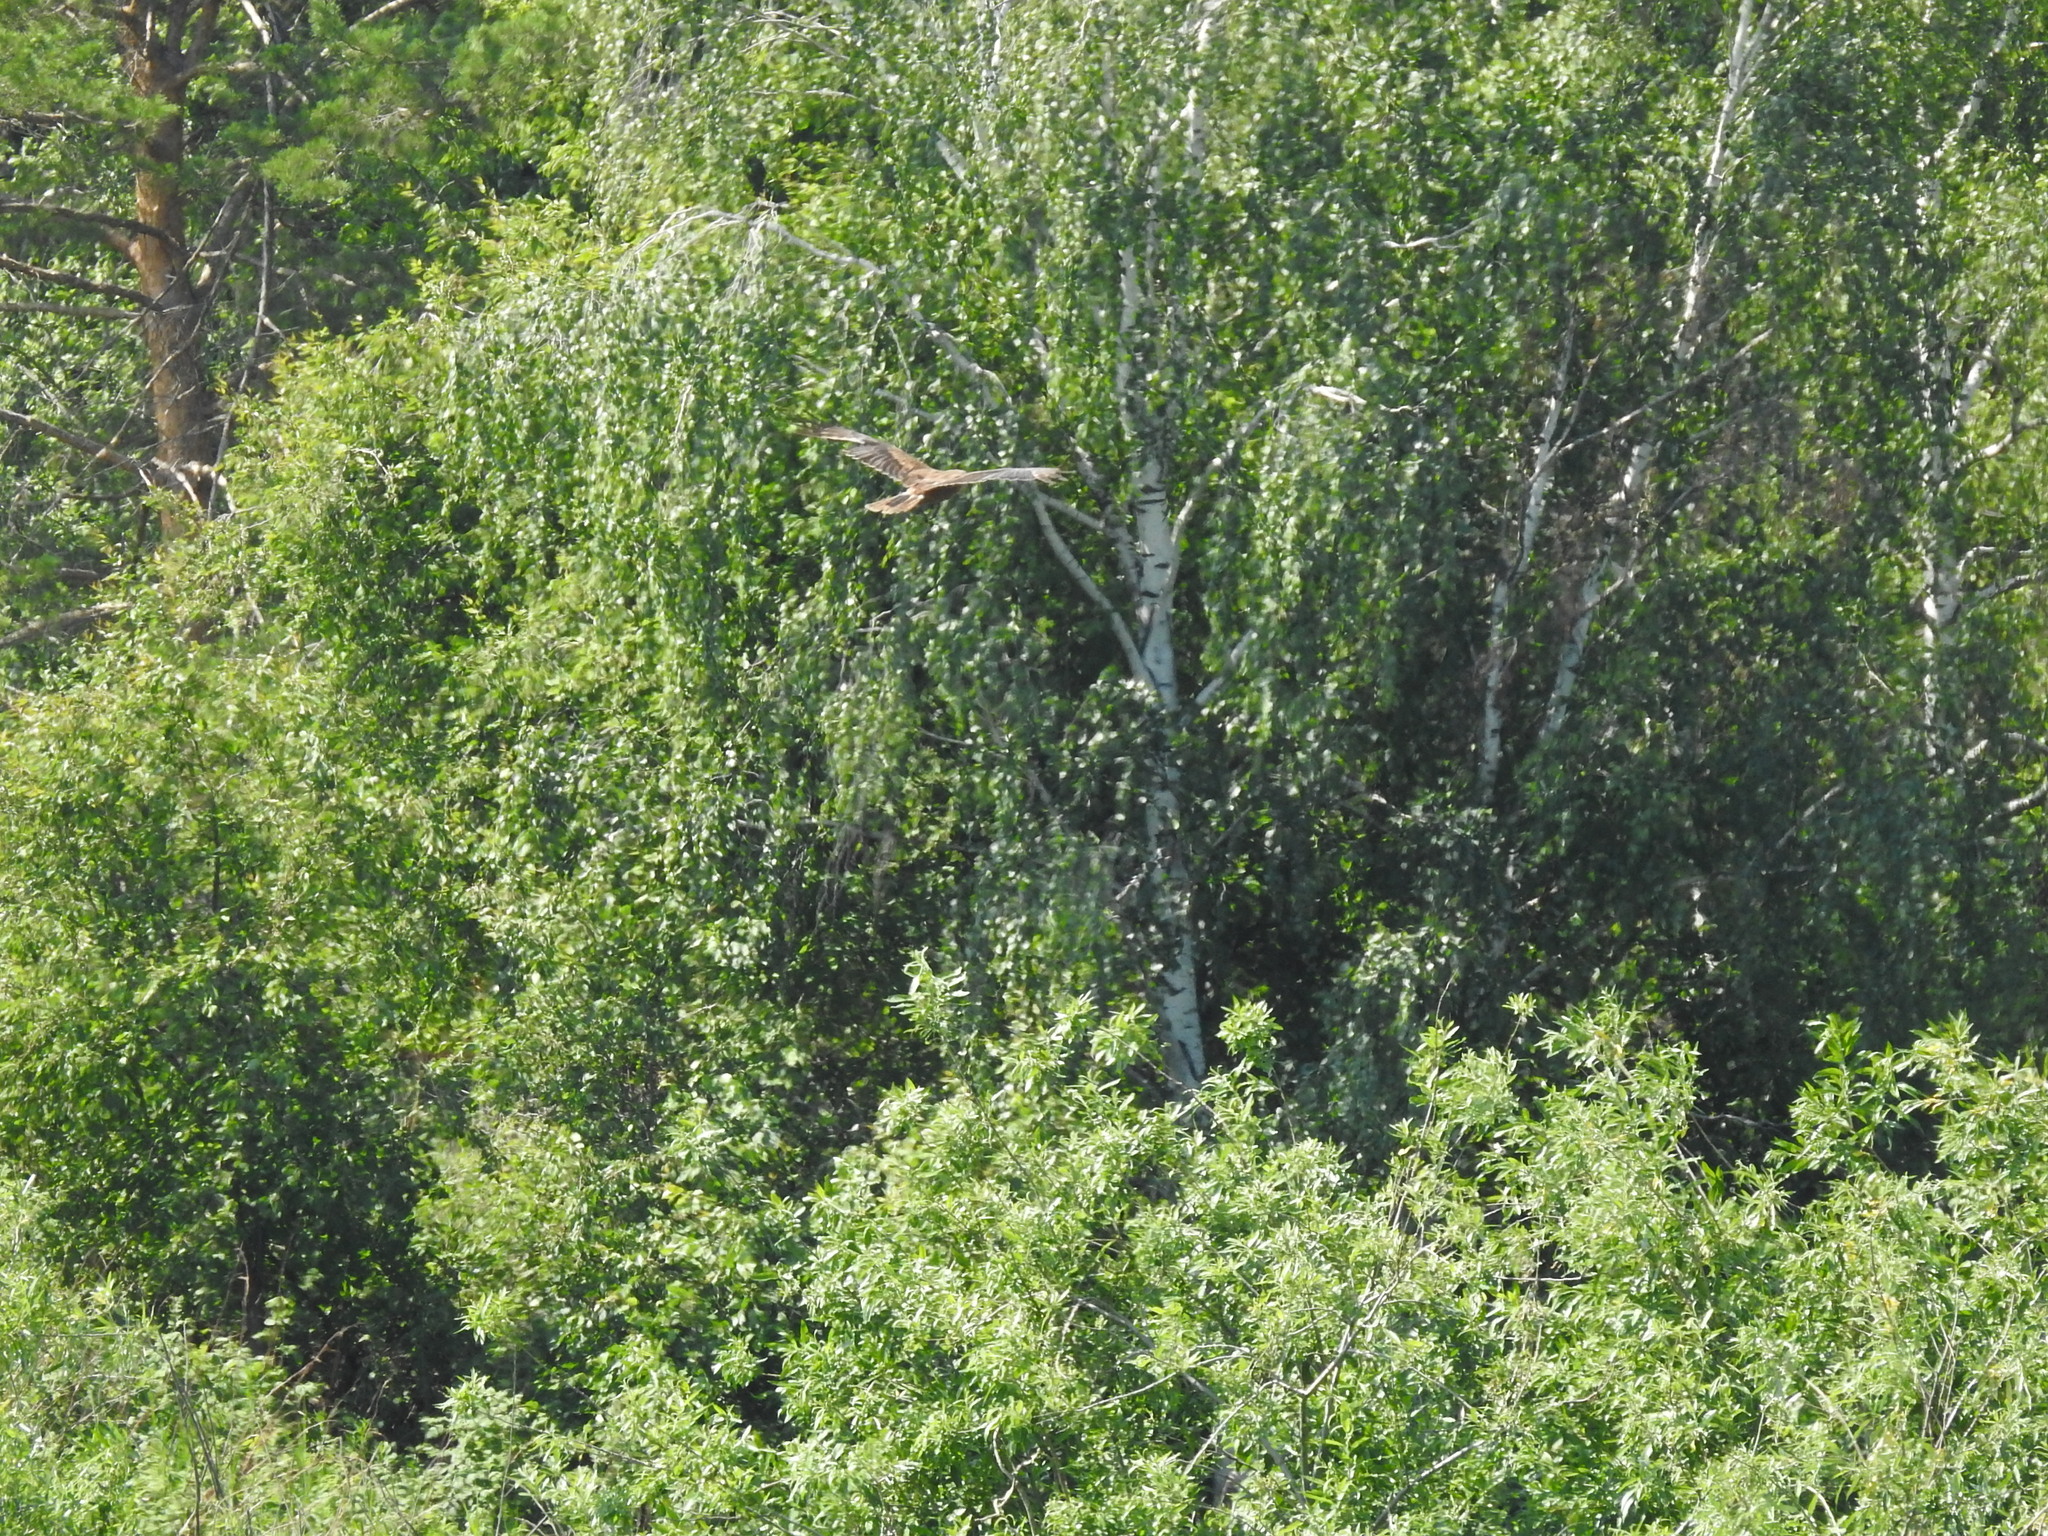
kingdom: Animalia
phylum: Chordata
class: Aves
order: Accipitriformes
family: Accipitridae
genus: Circus
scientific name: Circus aeruginosus
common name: Western marsh harrier
